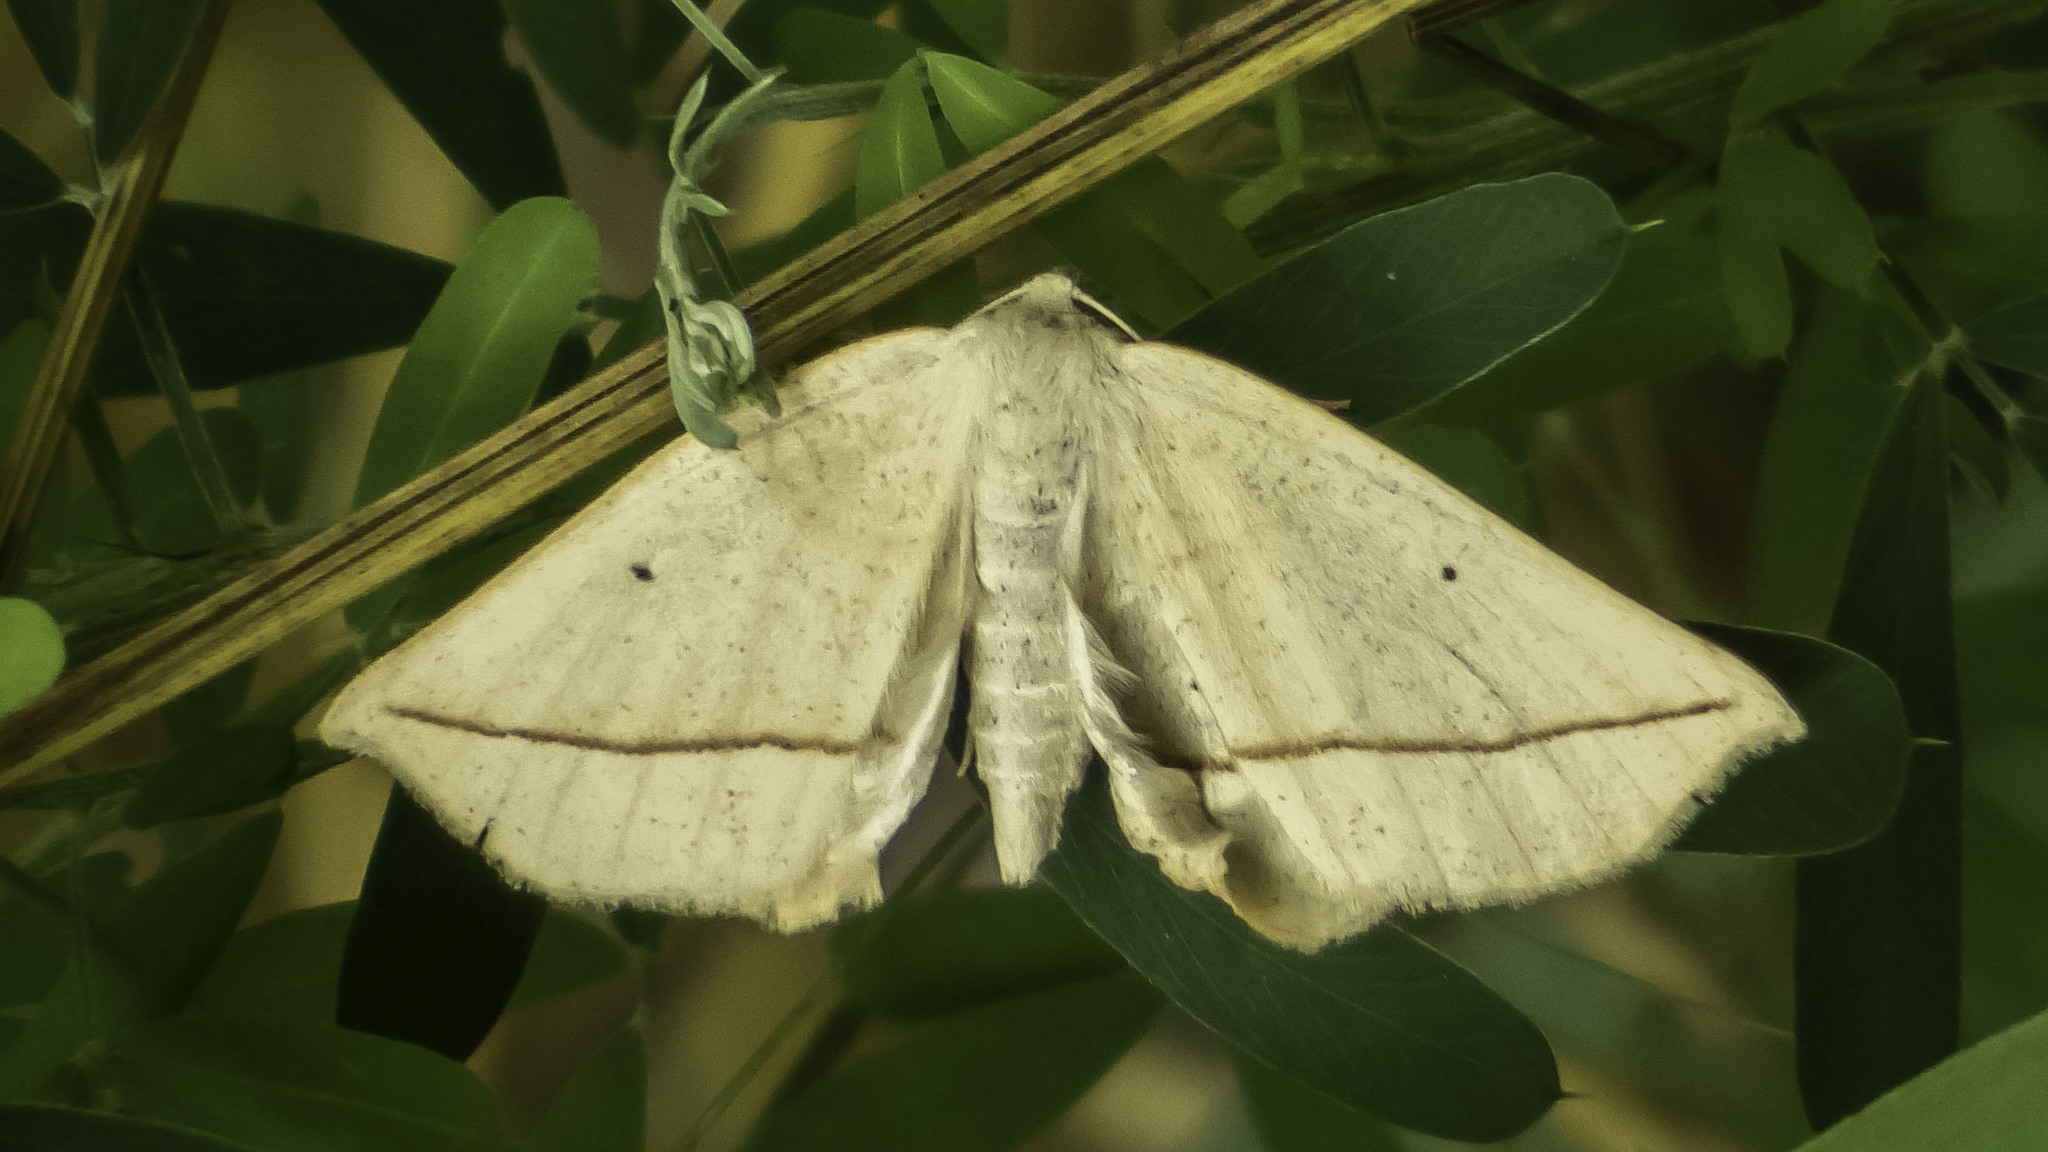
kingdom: Animalia
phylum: Arthropoda
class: Insecta
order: Lepidoptera
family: Geometridae
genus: Tetracis
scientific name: Tetracis crocallata
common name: Yellow slant-line
